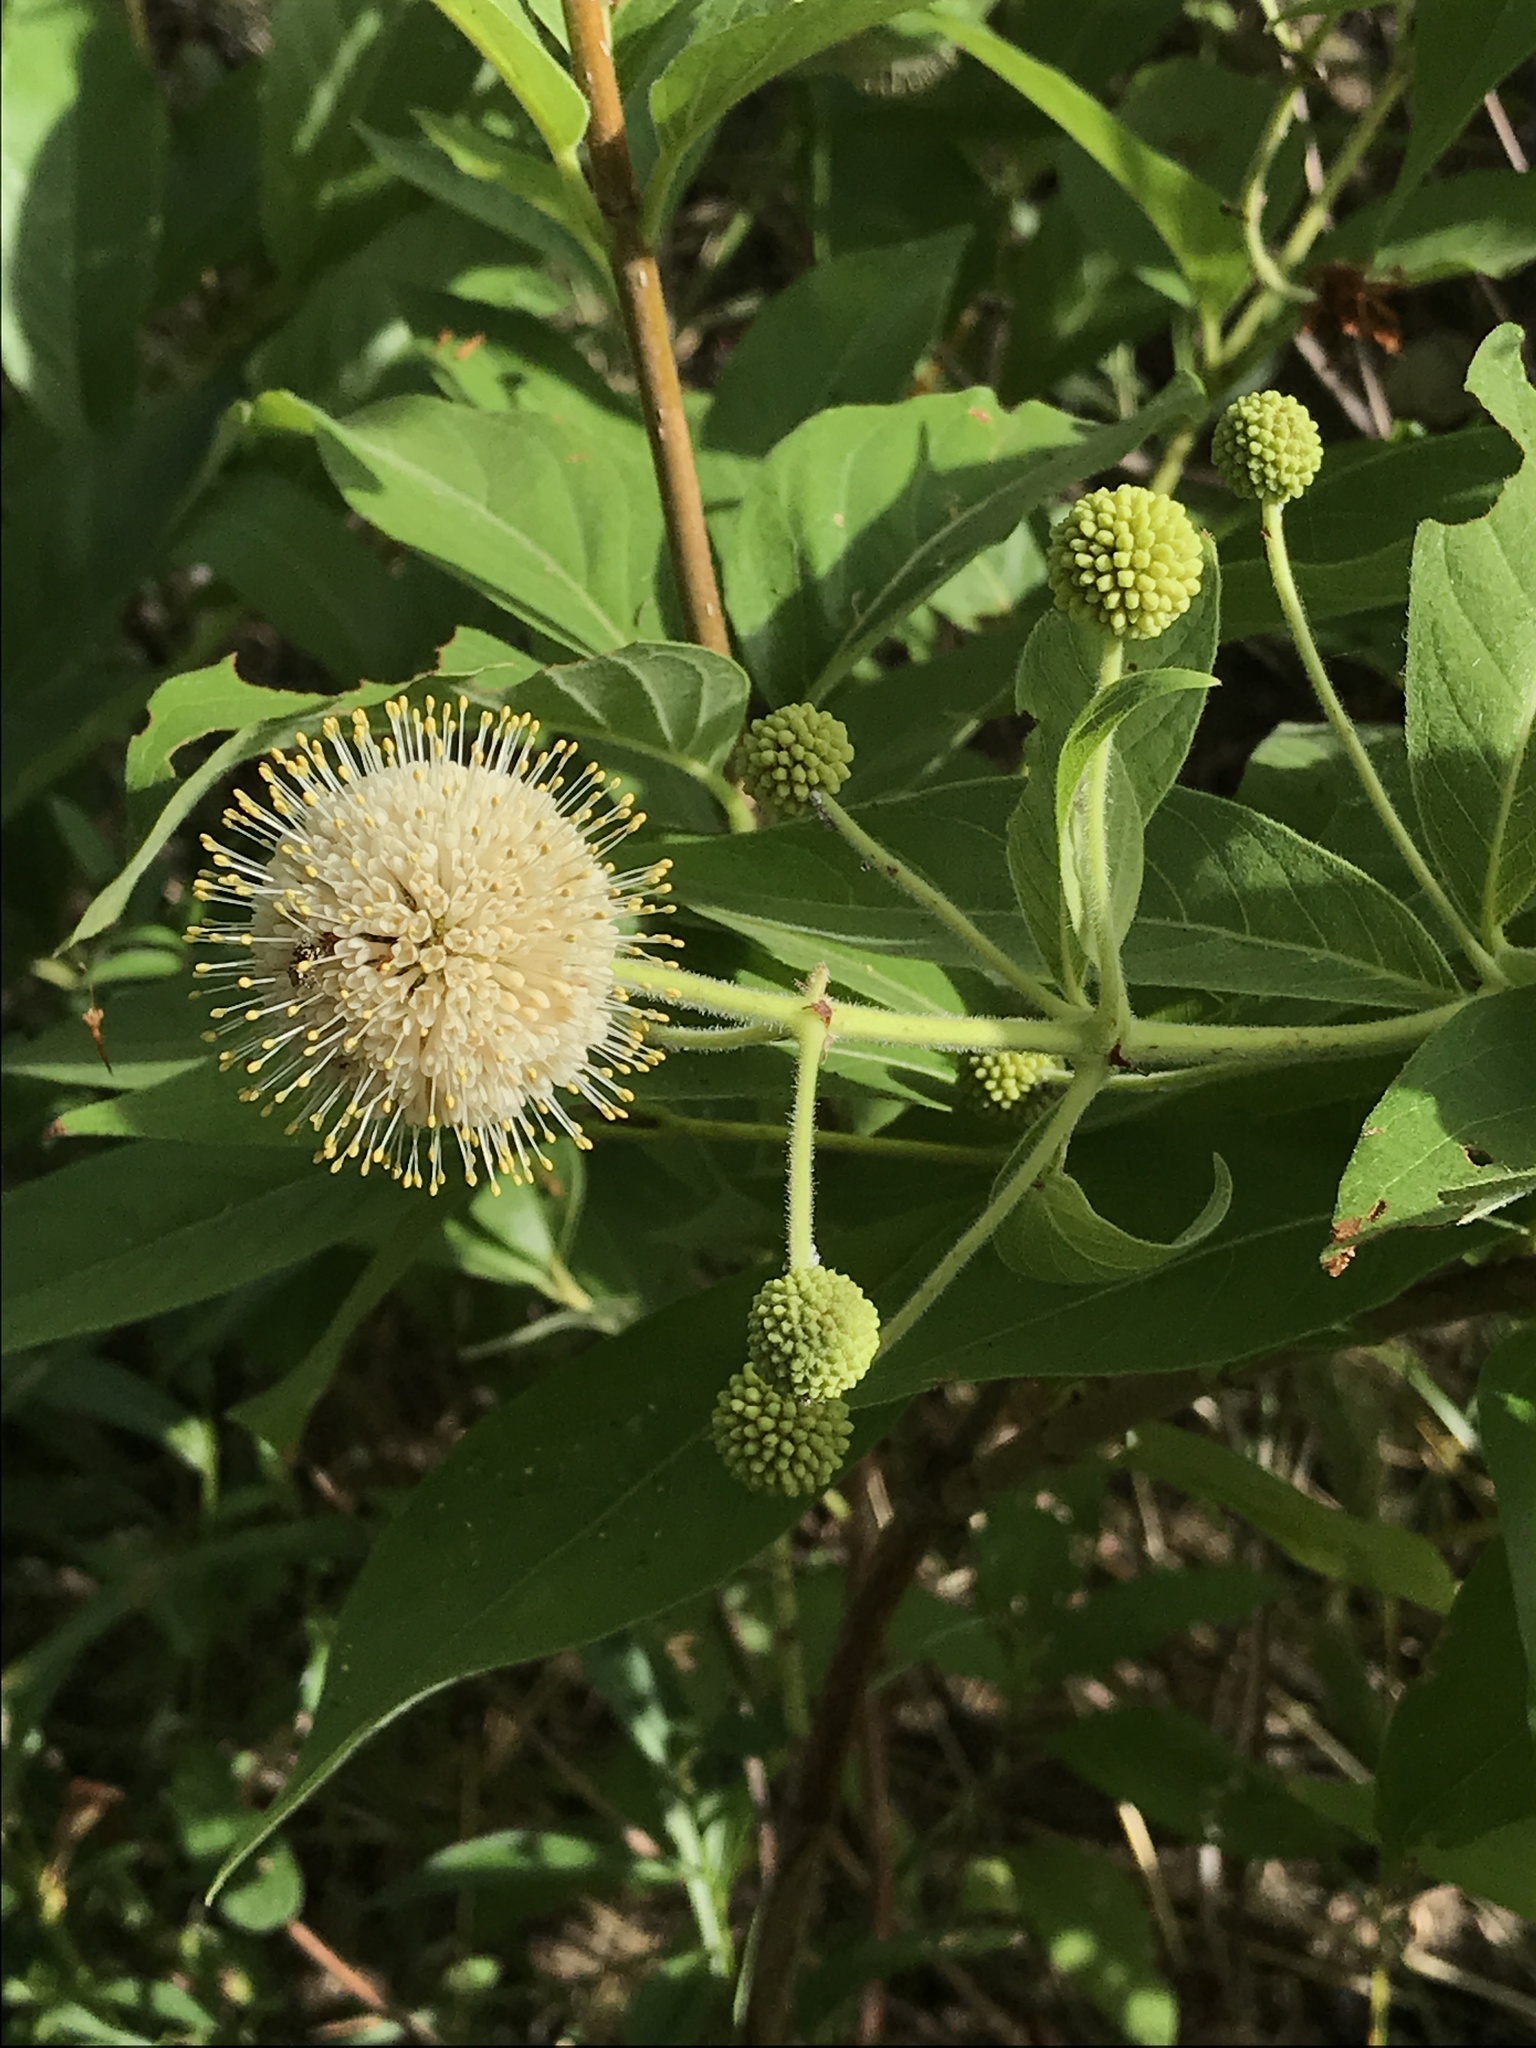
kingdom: Plantae
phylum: Tracheophyta
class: Magnoliopsida
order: Gentianales
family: Rubiaceae
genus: Cephalanthus
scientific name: Cephalanthus occidentalis
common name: Button-willow
